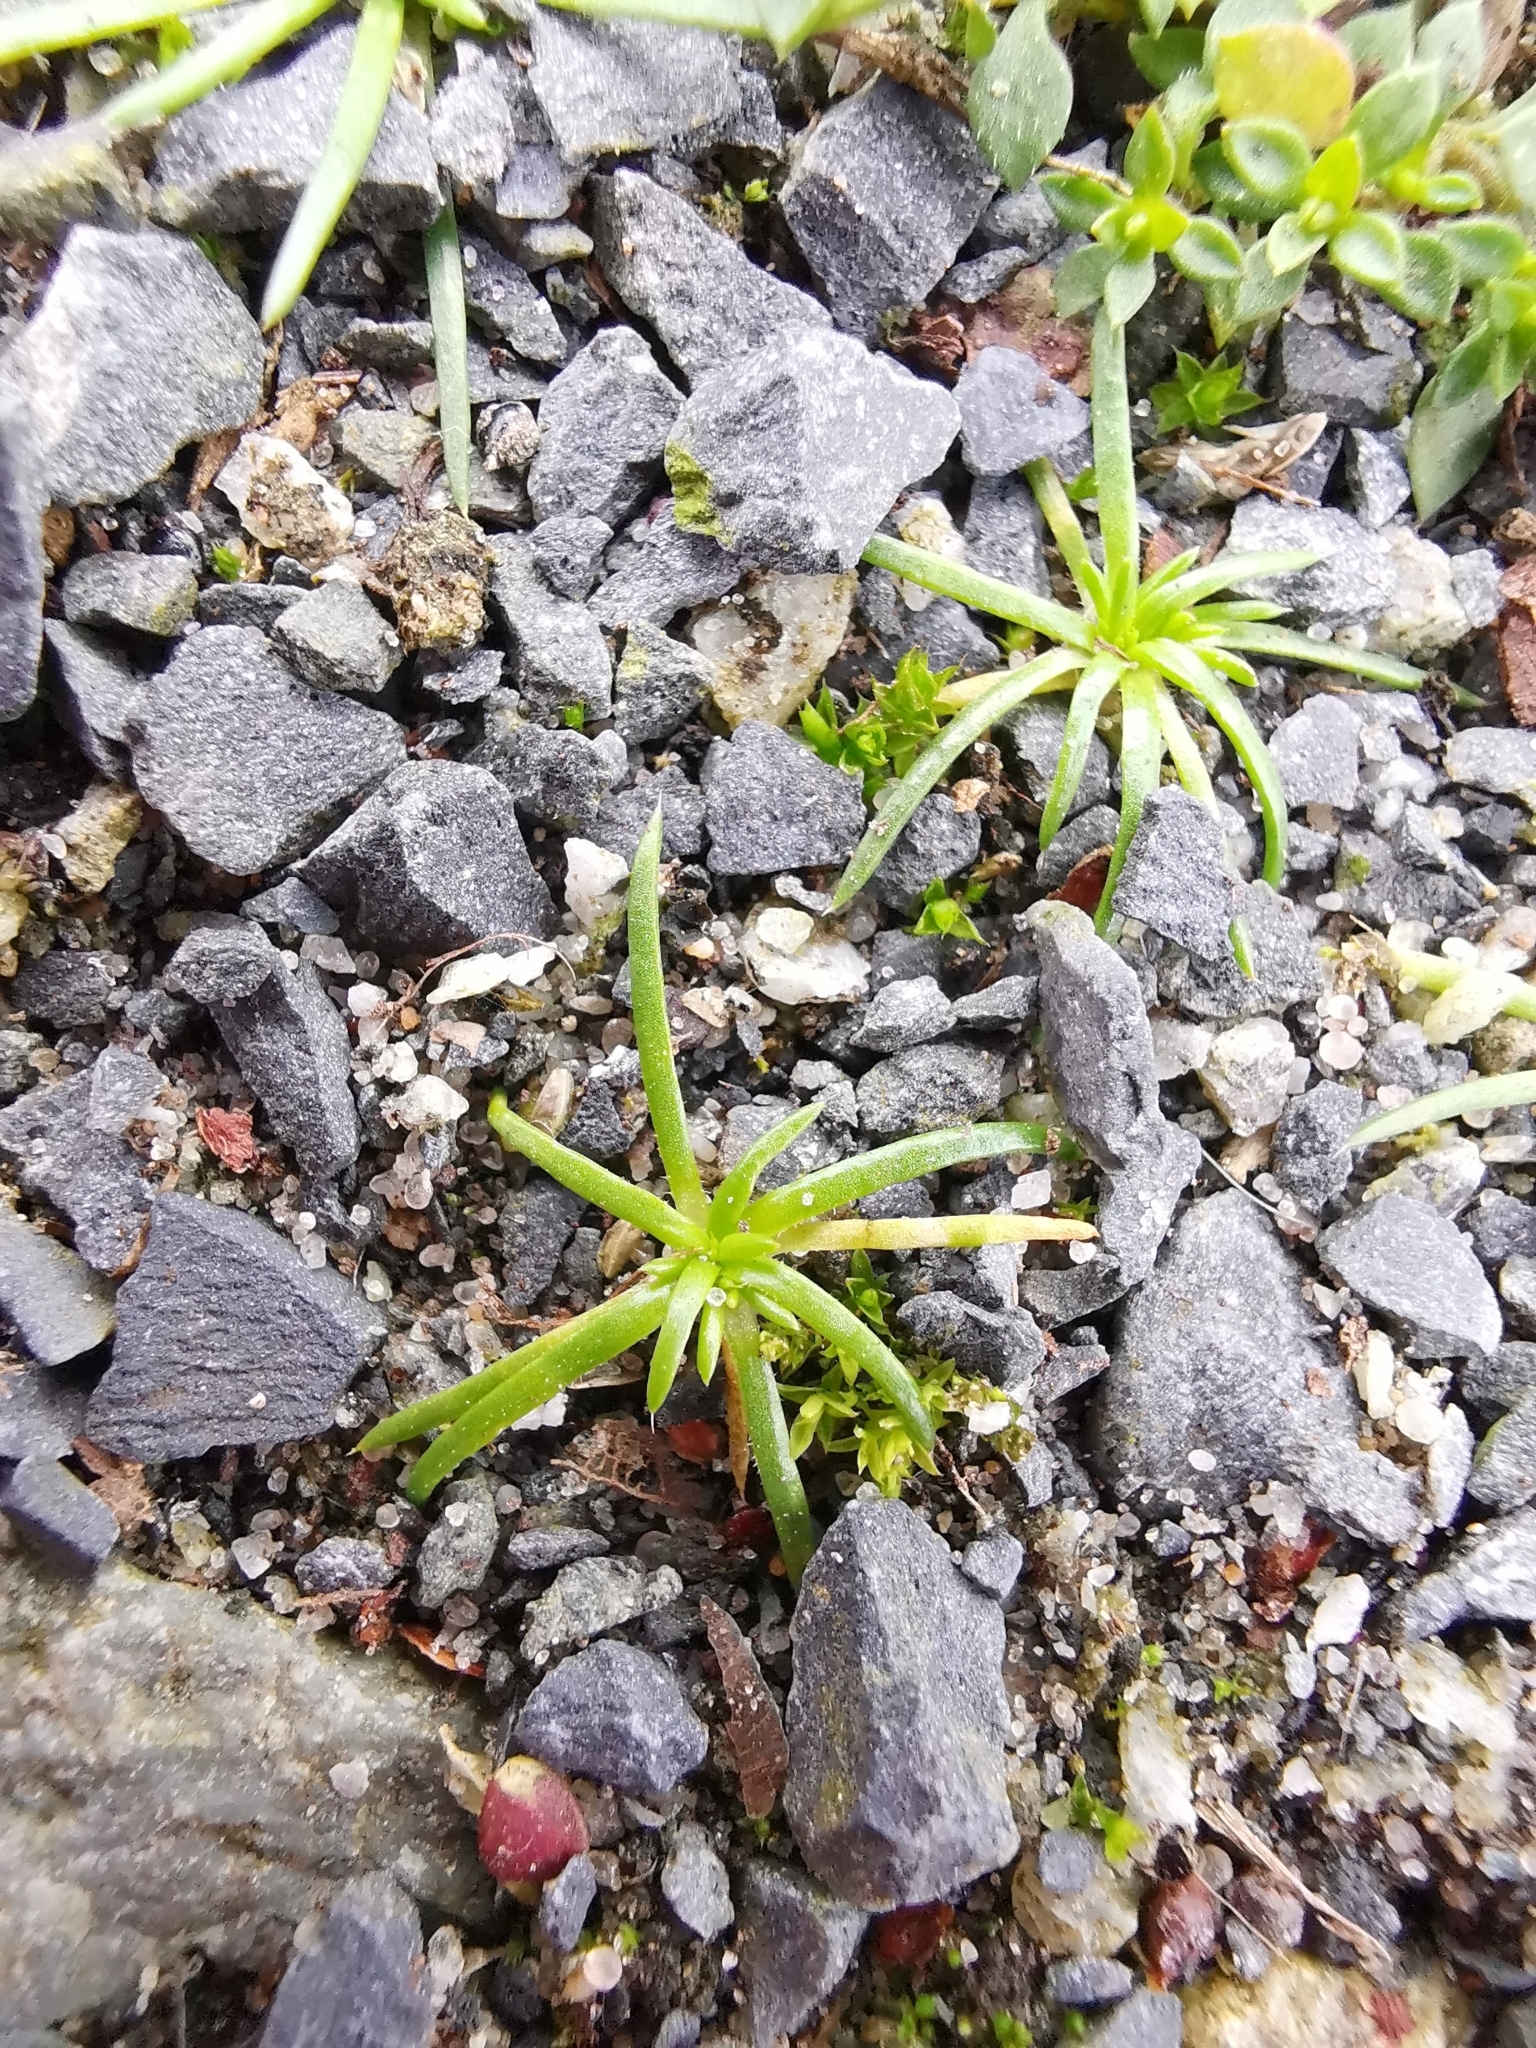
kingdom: Plantae
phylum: Tracheophyta
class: Magnoliopsida
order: Caryophyllales
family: Caryophyllaceae
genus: Sagina
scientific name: Sagina procumbens
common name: Procumbent pearlwort
